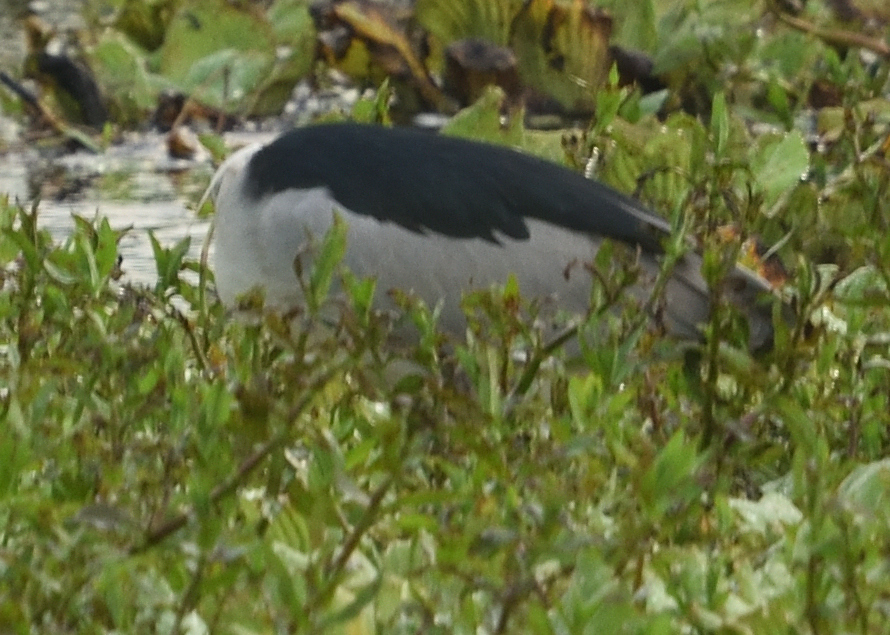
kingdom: Animalia
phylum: Chordata
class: Aves
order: Pelecaniformes
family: Ardeidae
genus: Nycticorax
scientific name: Nycticorax nycticorax
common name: Black-crowned night heron
